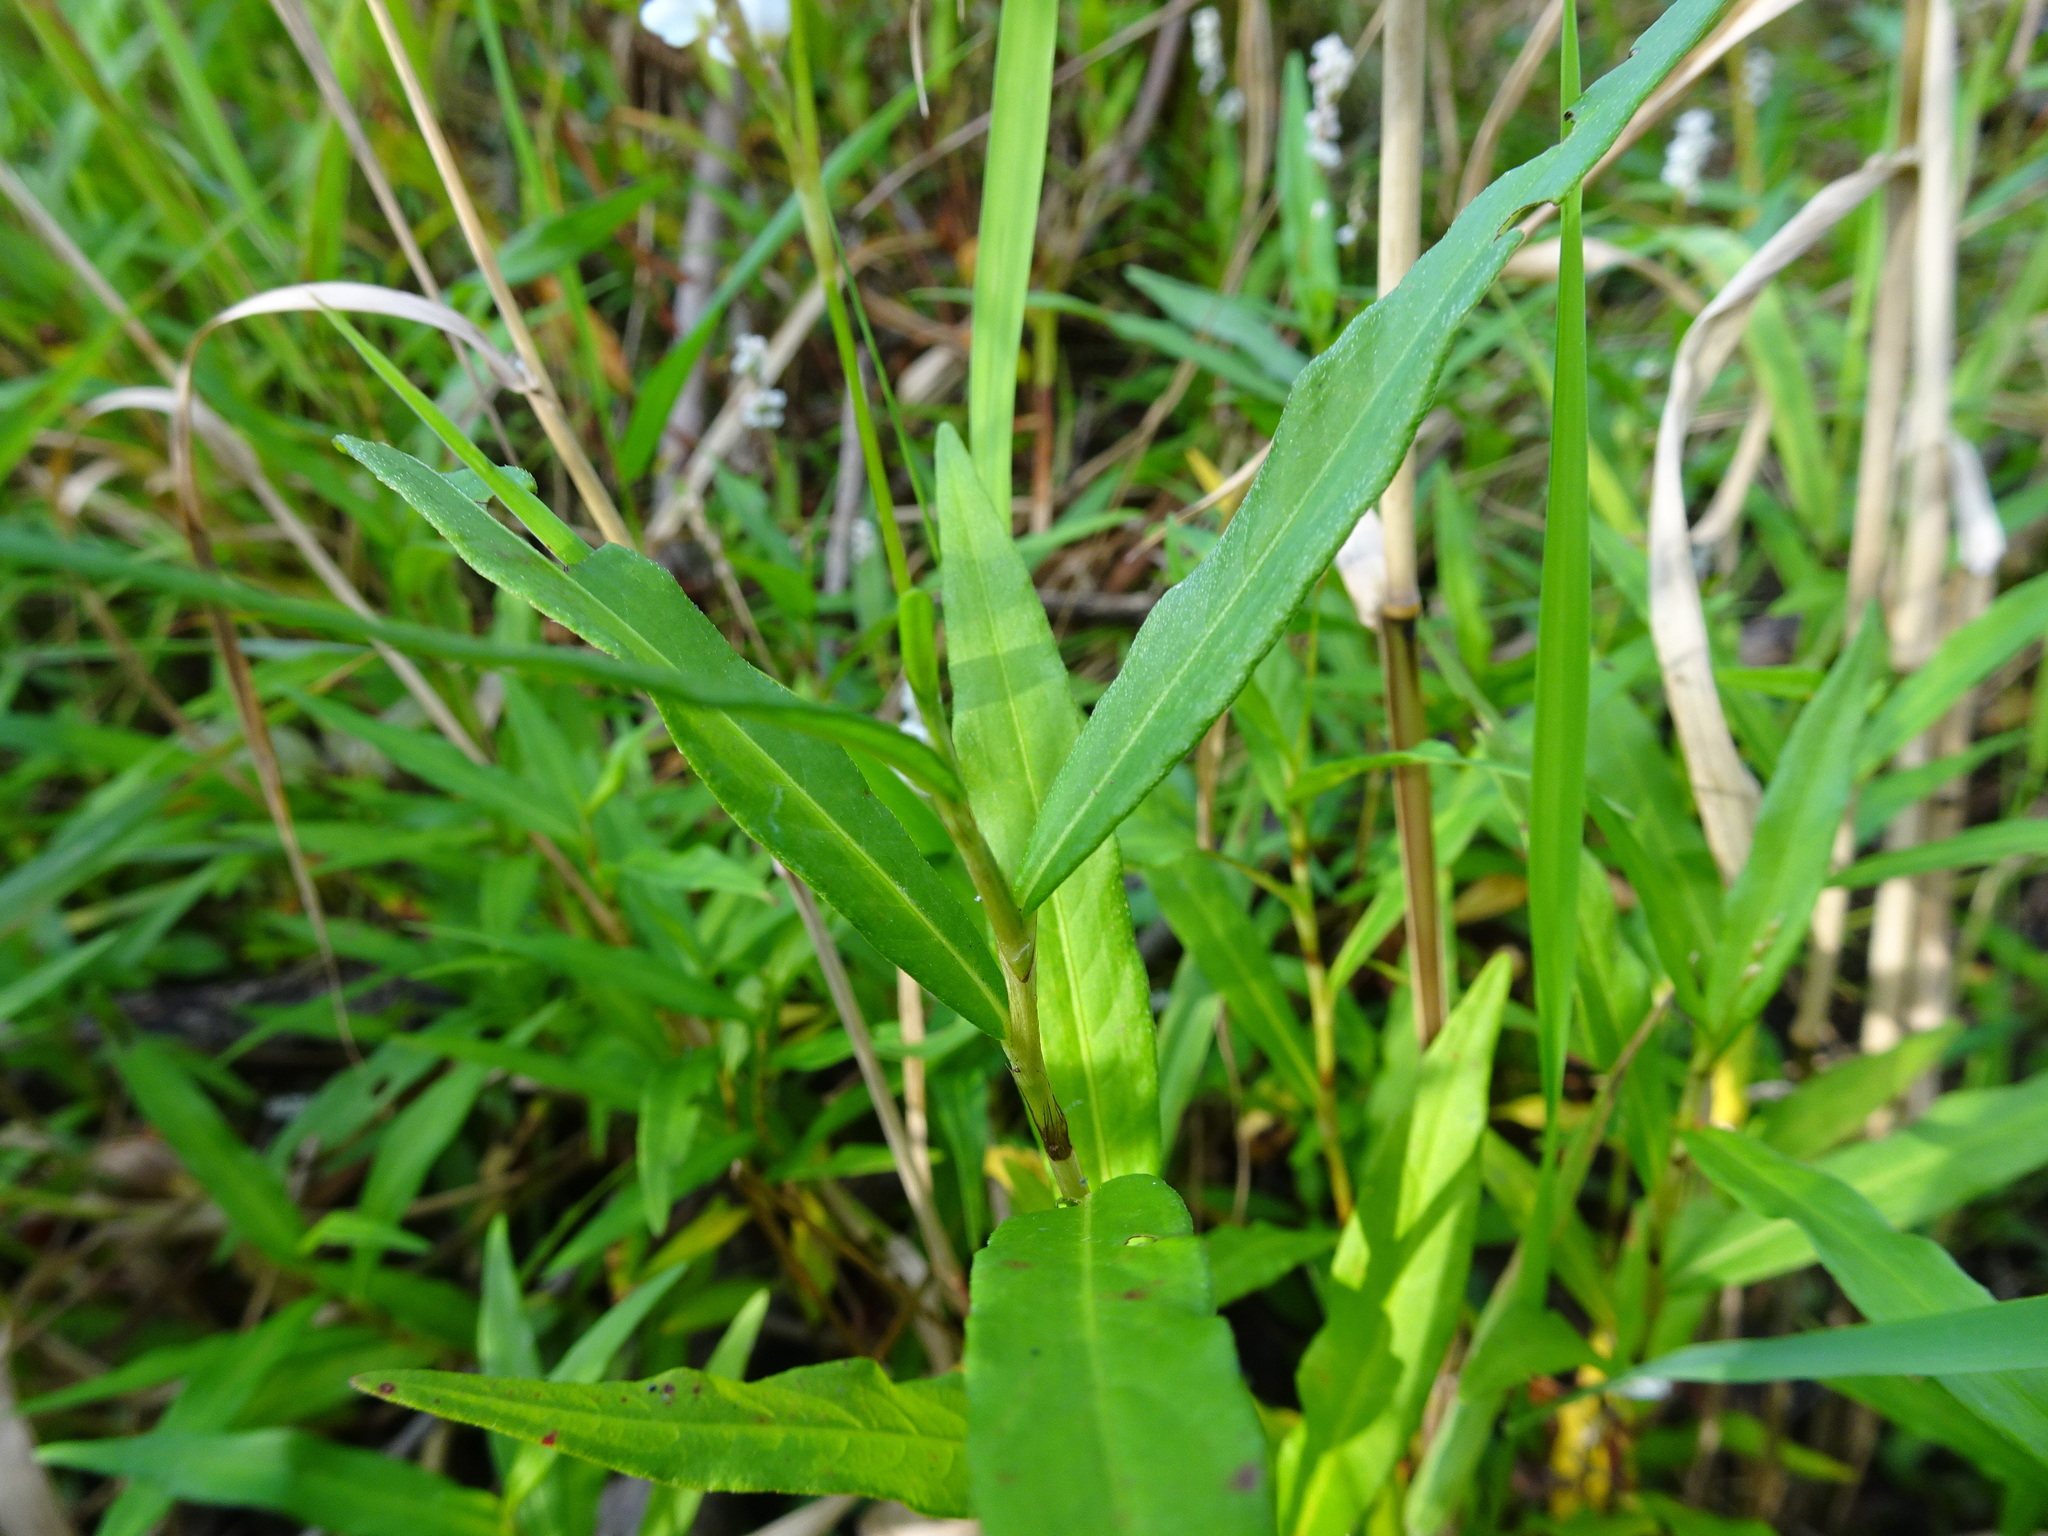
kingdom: Plantae
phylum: Tracheophyta
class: Magnoliopsida
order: Caryophyllales
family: Polygonaceae
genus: Persicaria
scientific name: Persicaria hydropiperoides
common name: Swamp smartweed
